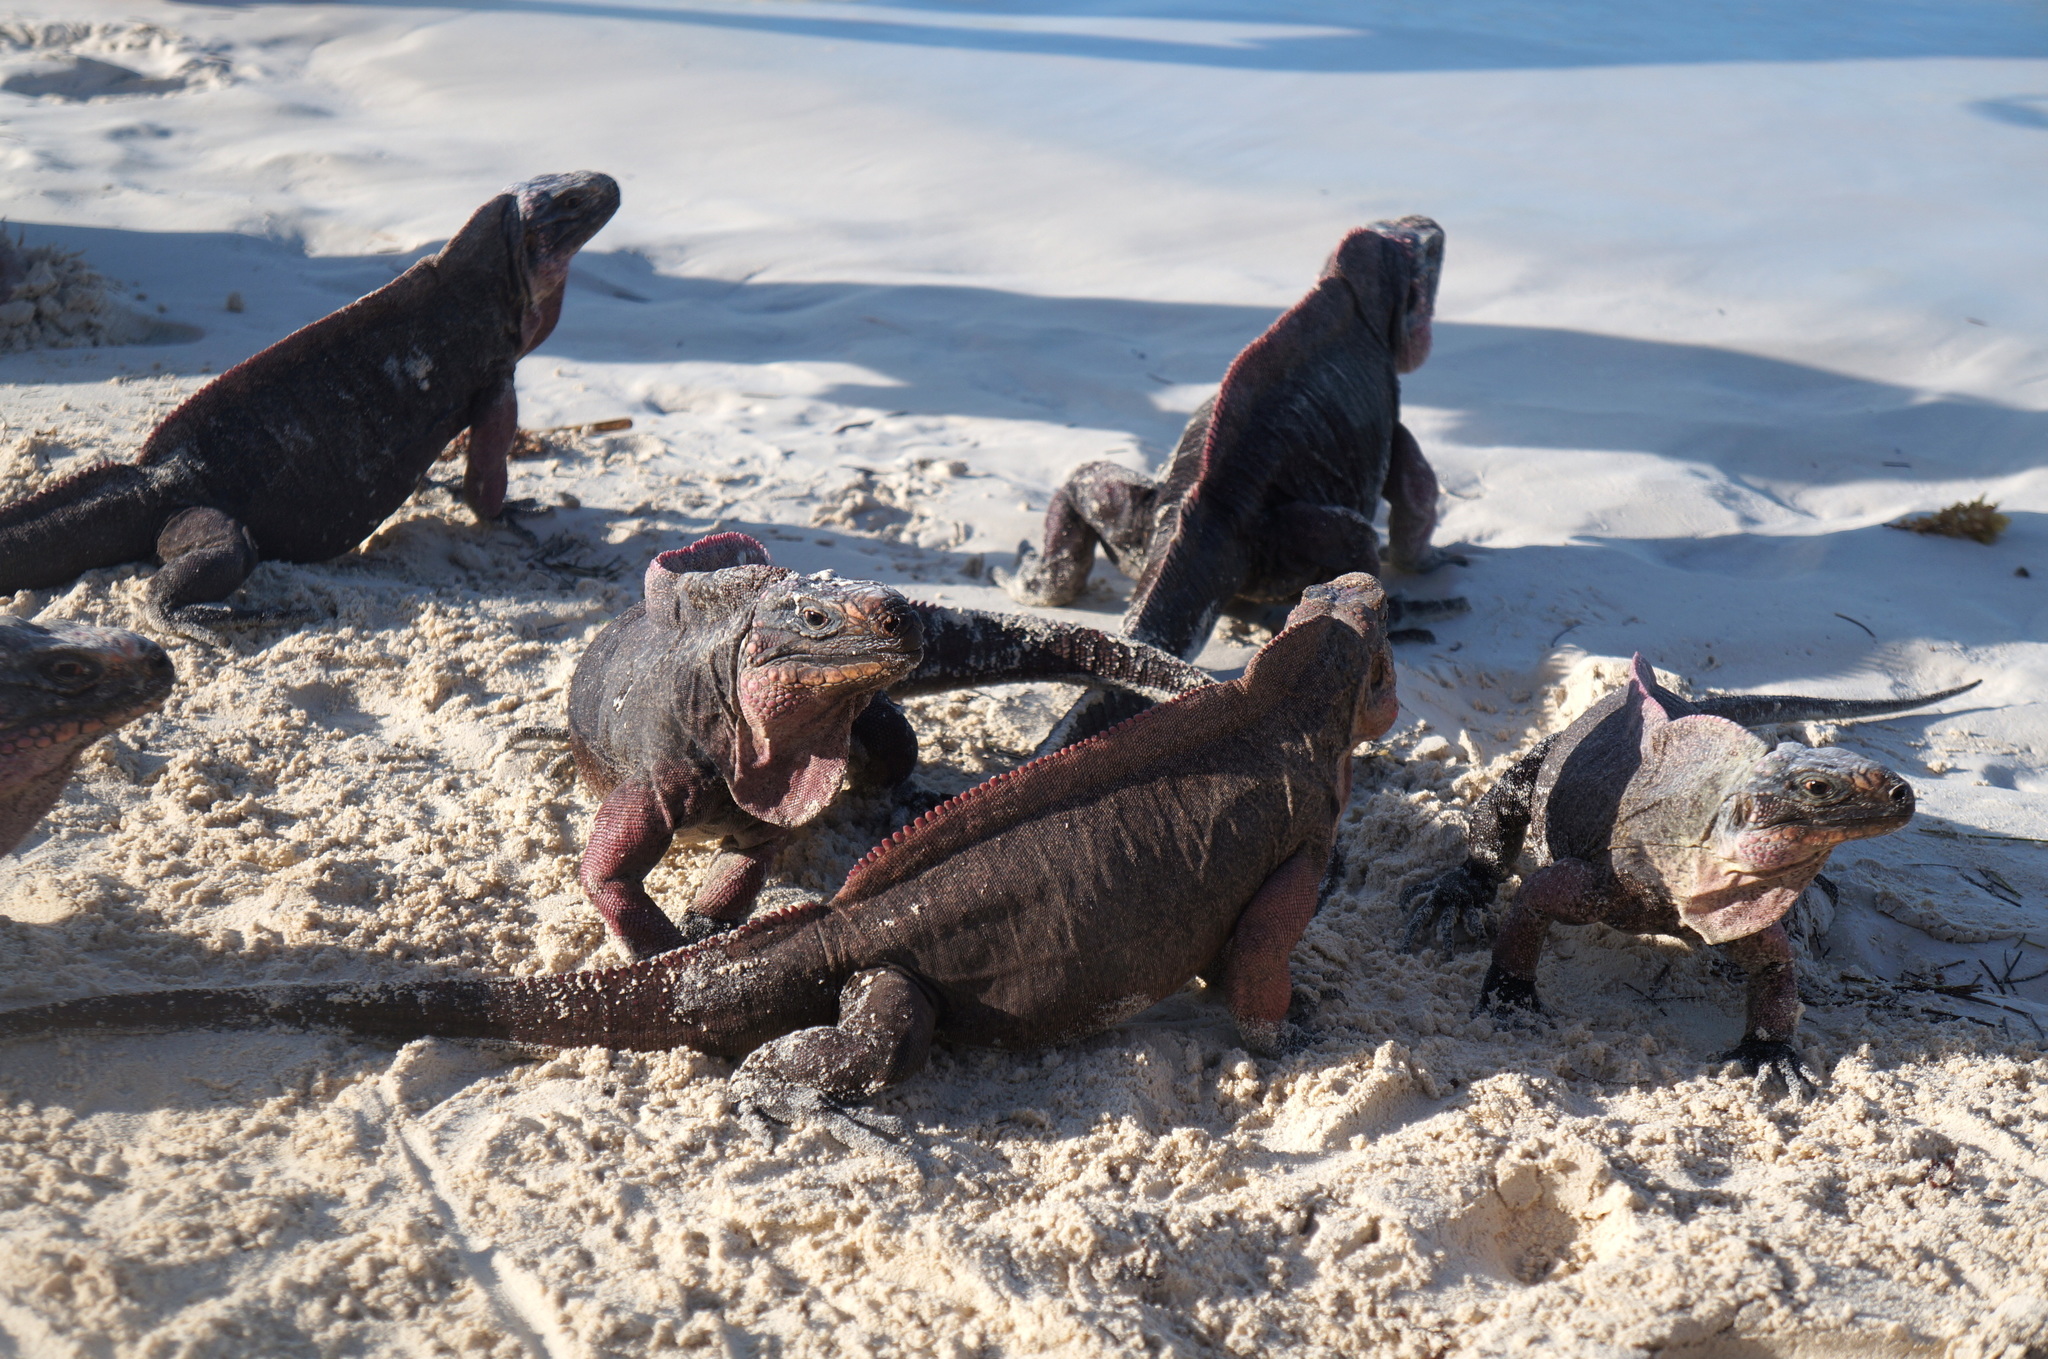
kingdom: Animalia
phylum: Chordata
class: Squamata
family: Iguanidae
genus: Cyclura
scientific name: Cyclura cychlura
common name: Northern bahamian rock iguana
